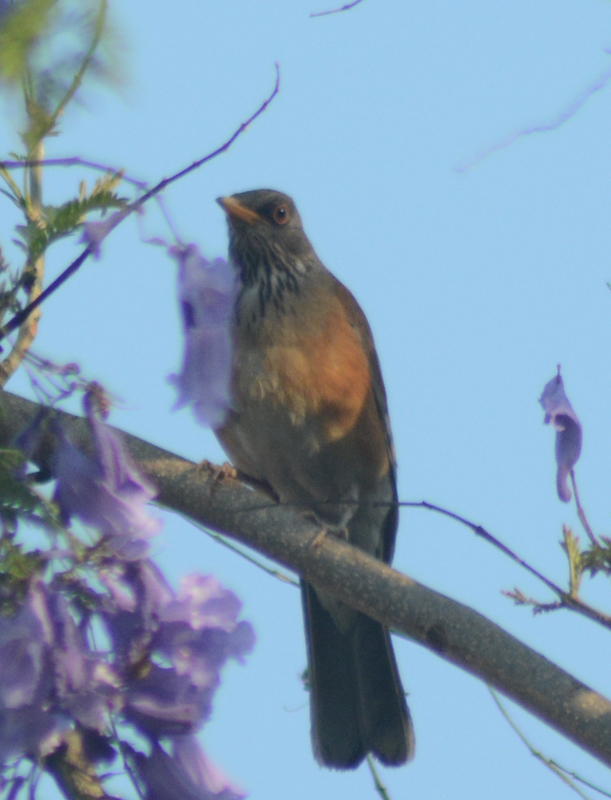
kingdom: Animalia
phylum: Chordata
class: Aves
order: Passeriformes
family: Turdidae
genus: Turdus
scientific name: Turdus rufopalliatus
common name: Rufous-backed robin
